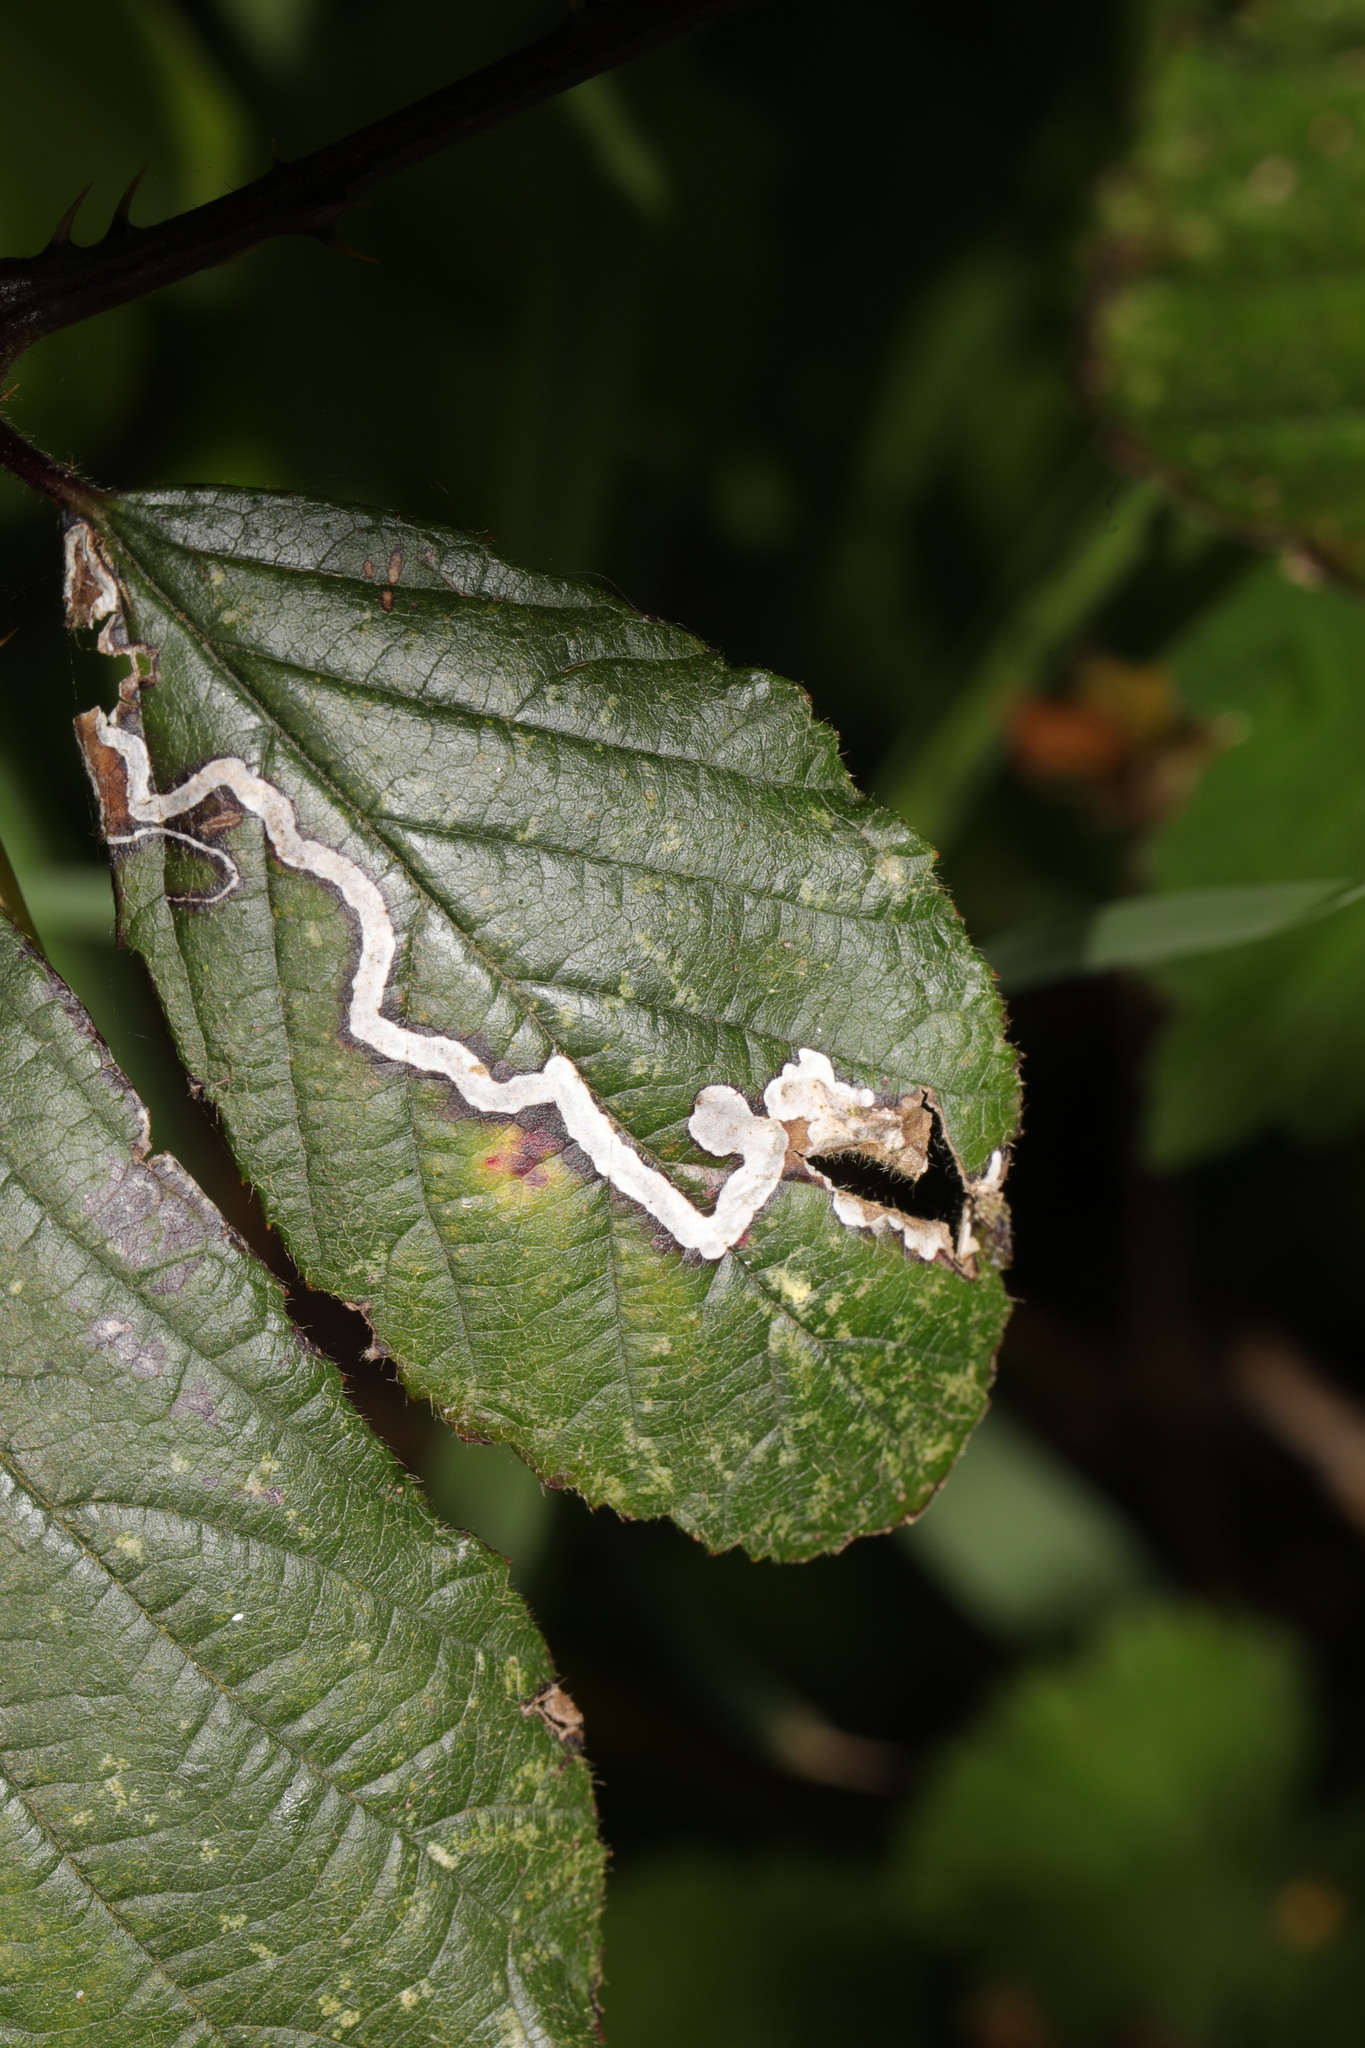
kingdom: Animalia
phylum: Arthropoda
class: Insecta
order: Lepidoptera
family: Nepticulidae
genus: Stigmella
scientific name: Stigmella aurella
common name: Golden pigmy
